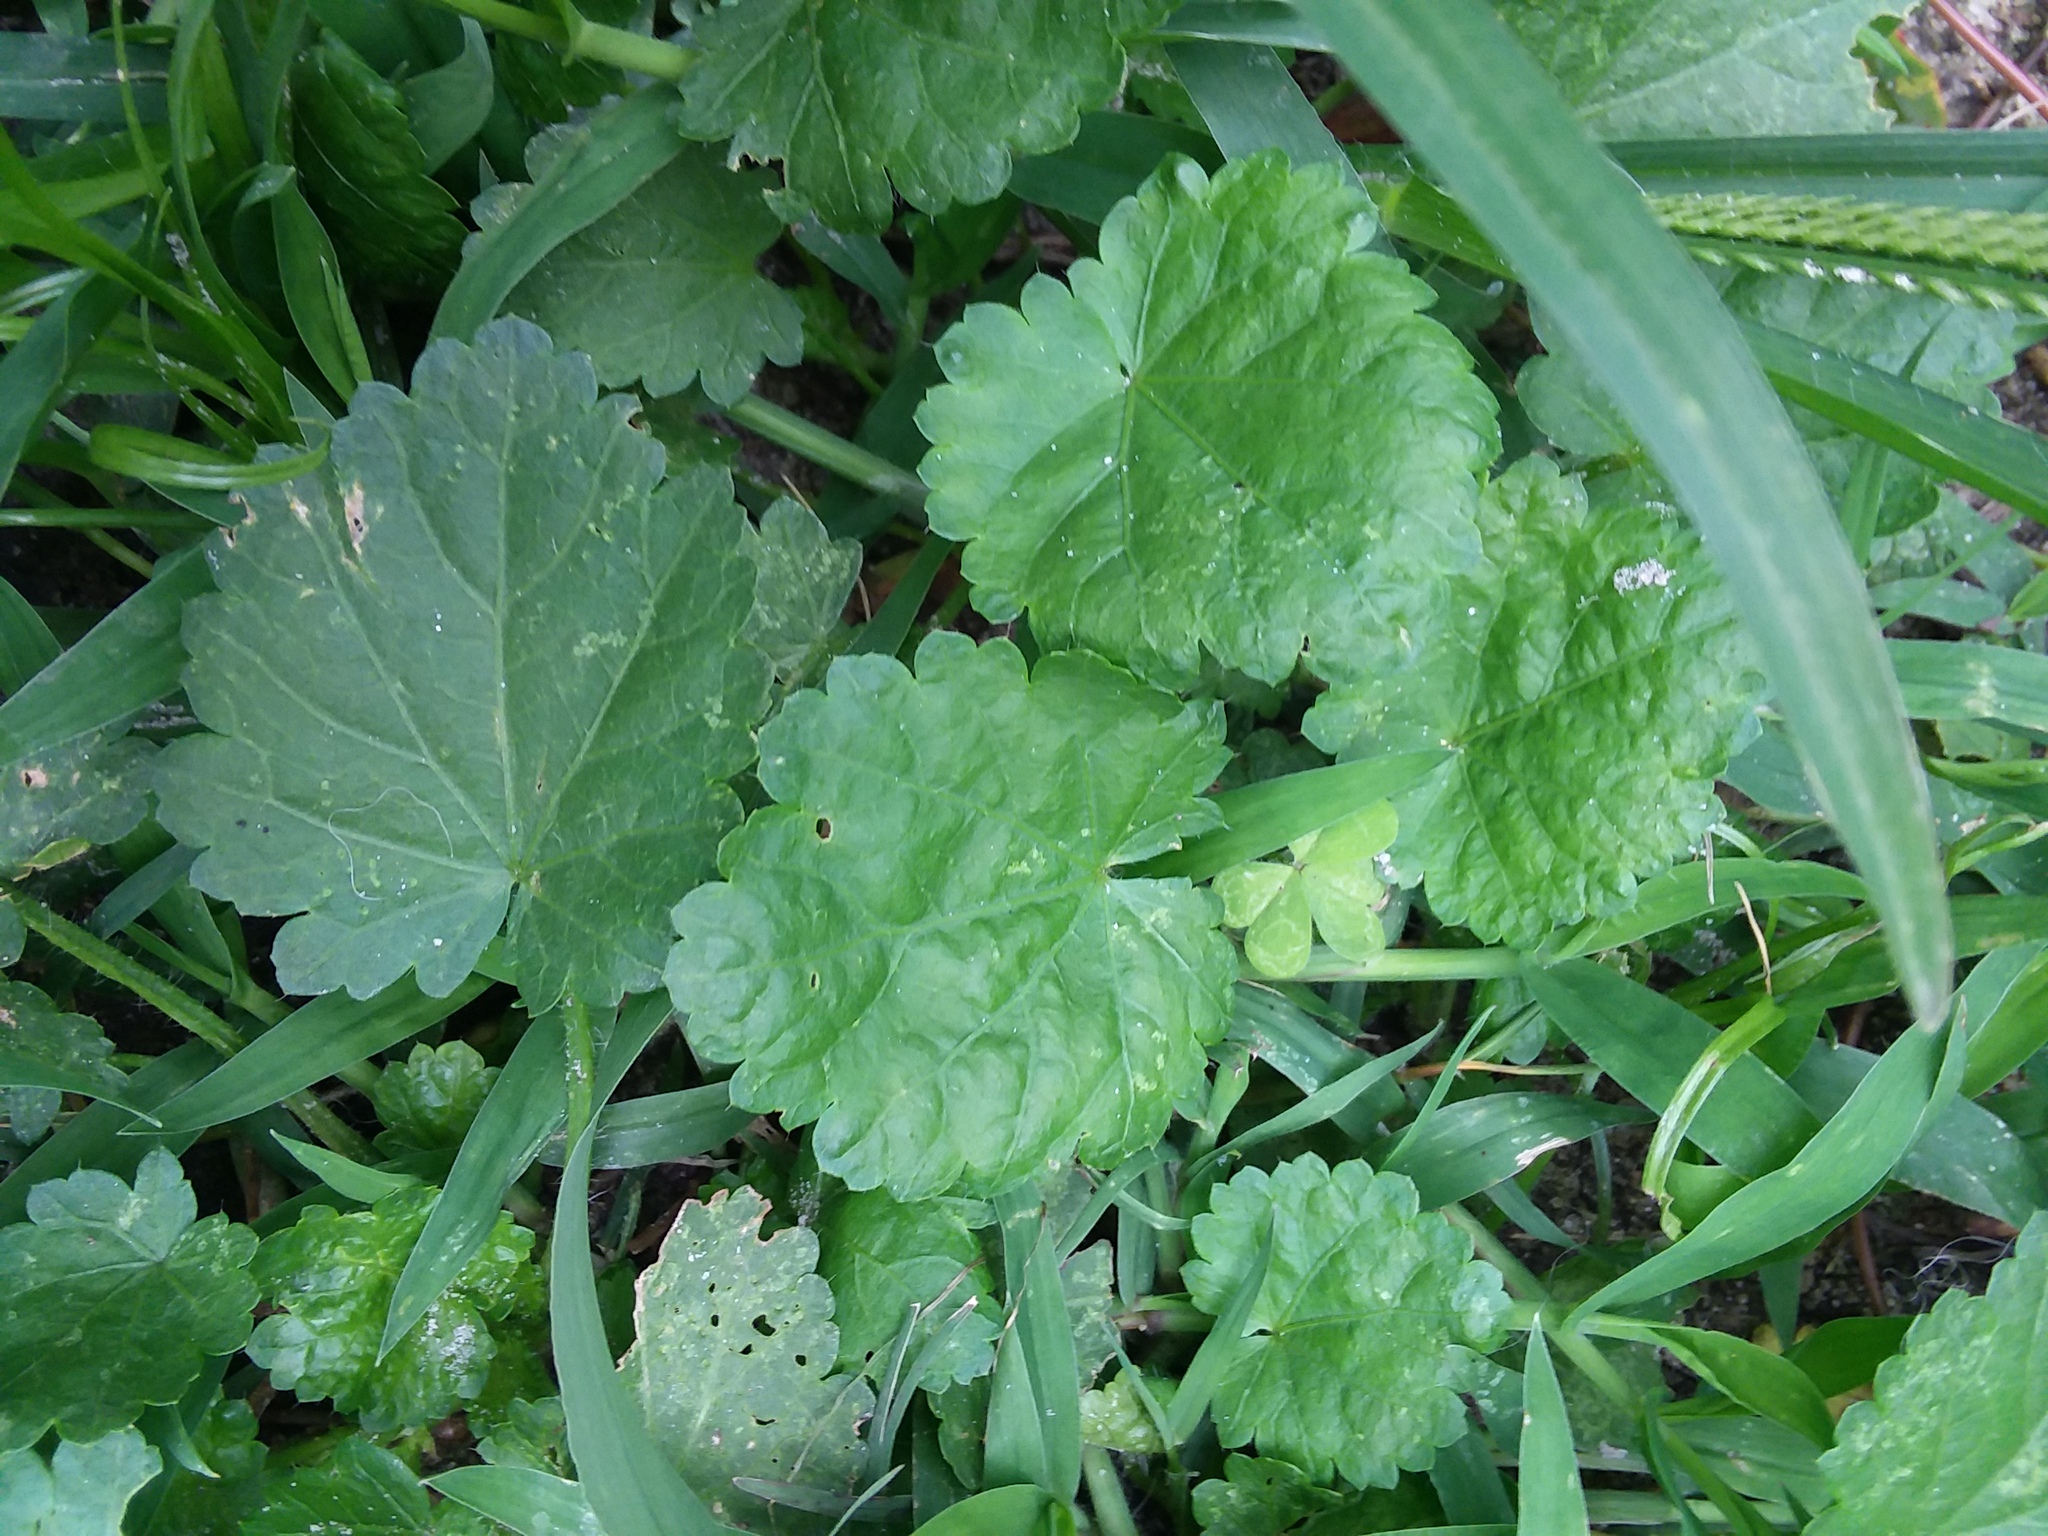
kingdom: Plantae
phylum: Tracheophyta
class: Magnoliopsida
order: Malvales
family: Malvaceae
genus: Modiola
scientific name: Modiola caroliniana
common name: Carolina bristlemallow
